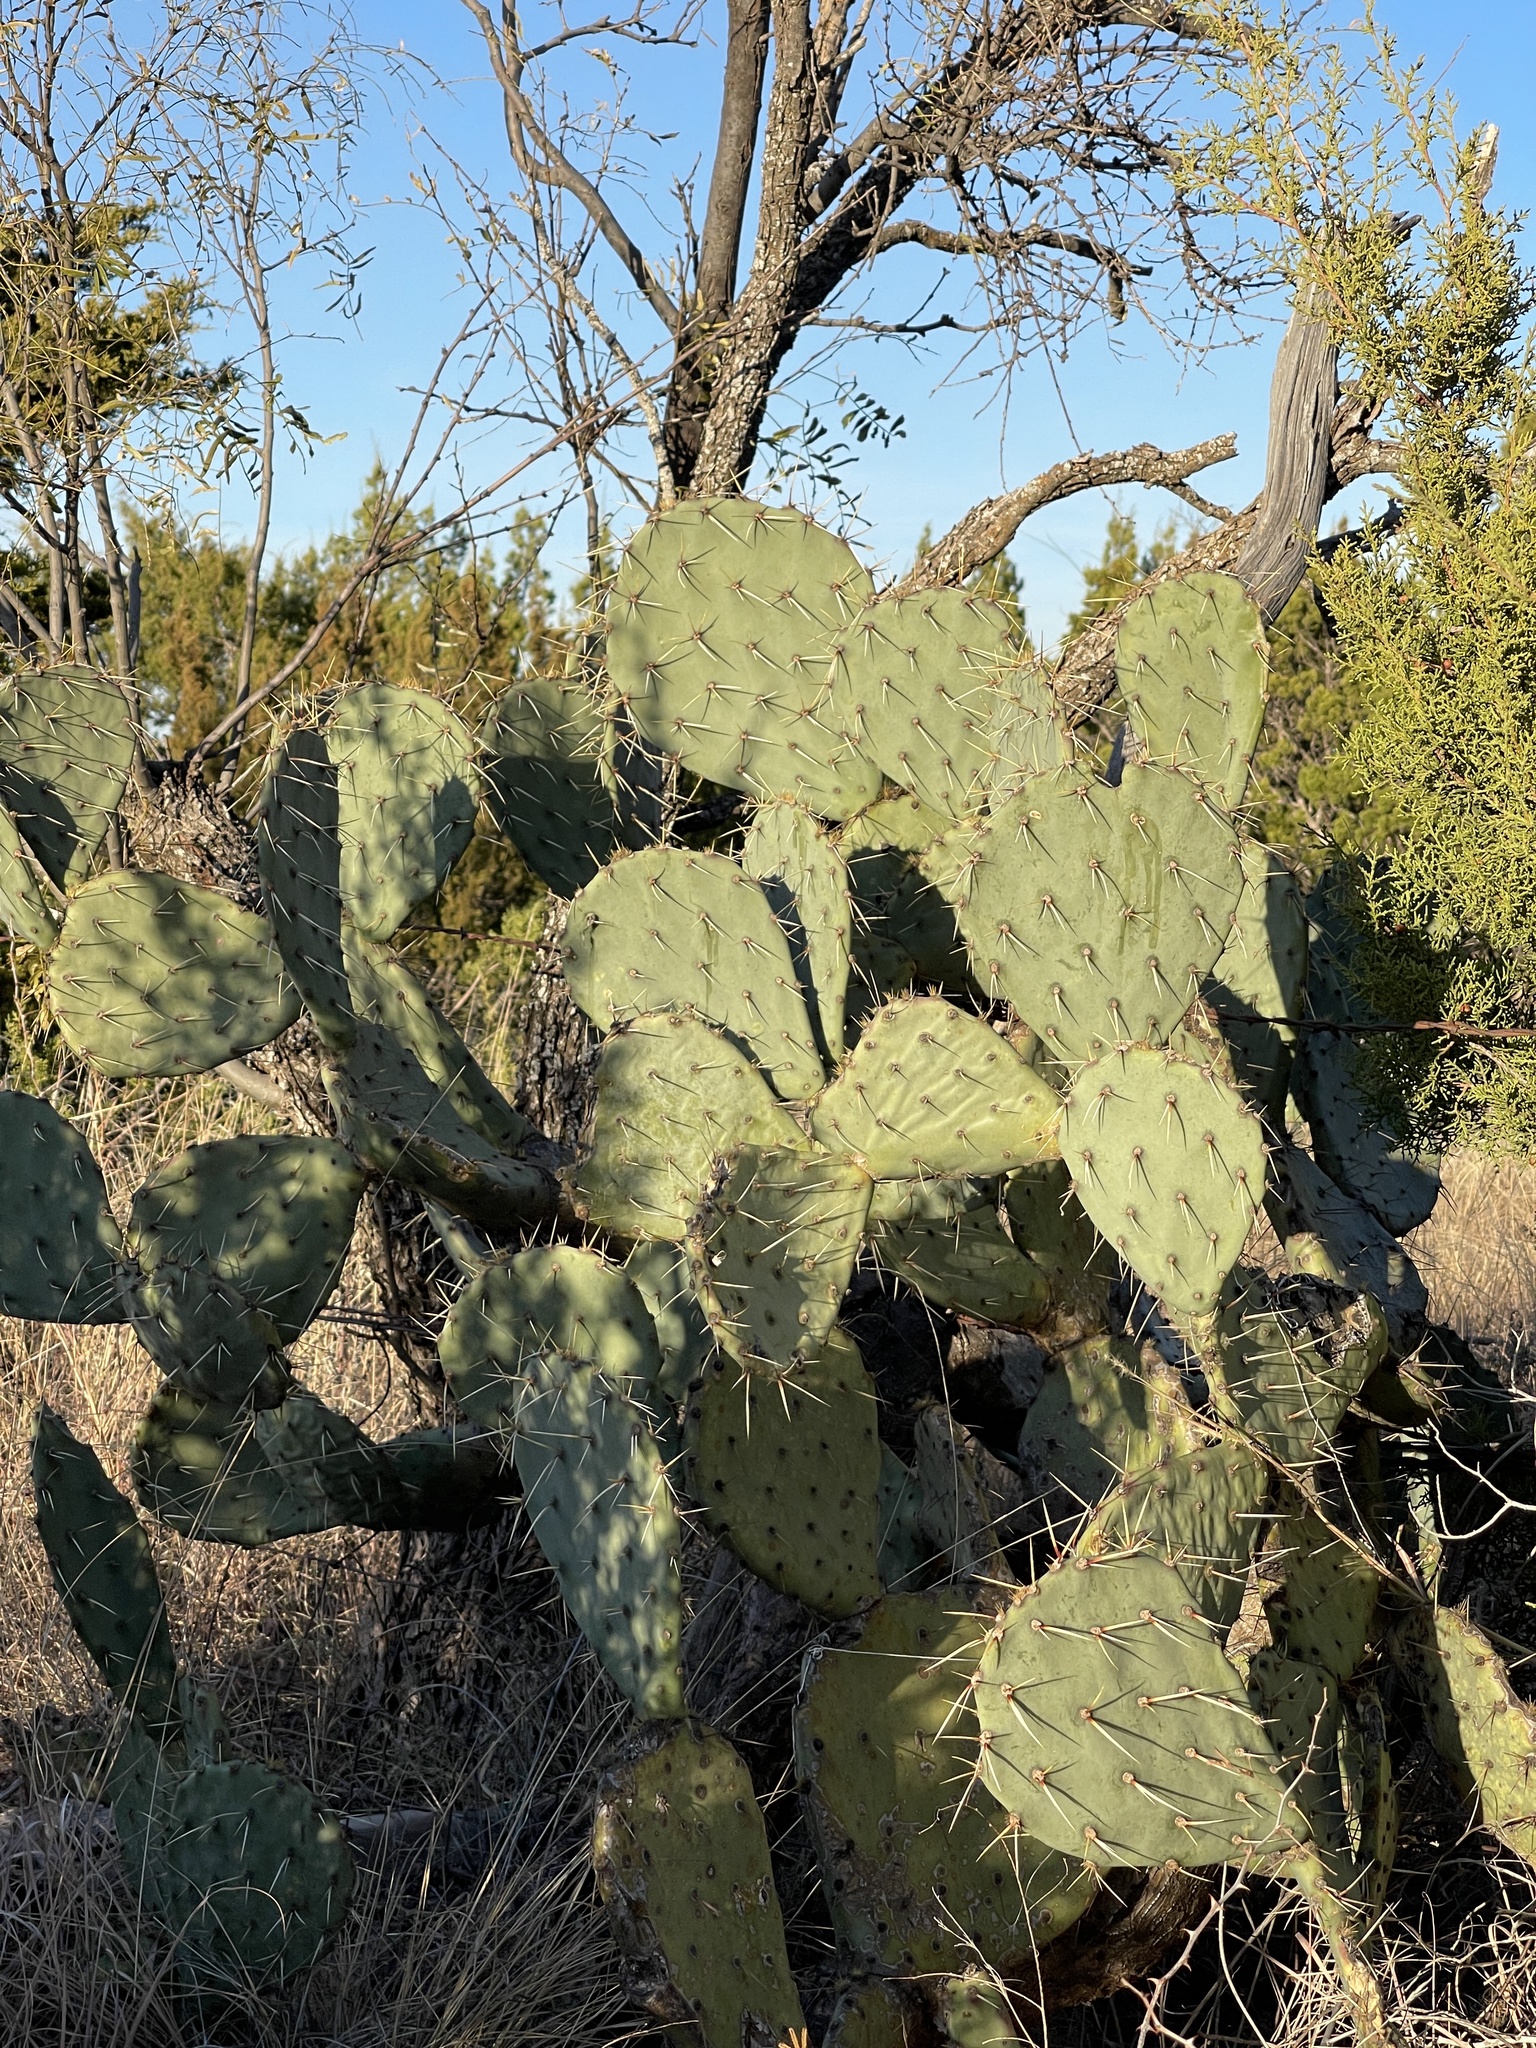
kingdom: Plantae
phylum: Tracheophyta
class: Magnoliopsida
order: Caryophyllales
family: Cactaceae
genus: Opuntia
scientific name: Opuntia engelmannii
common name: Cactus-apple
